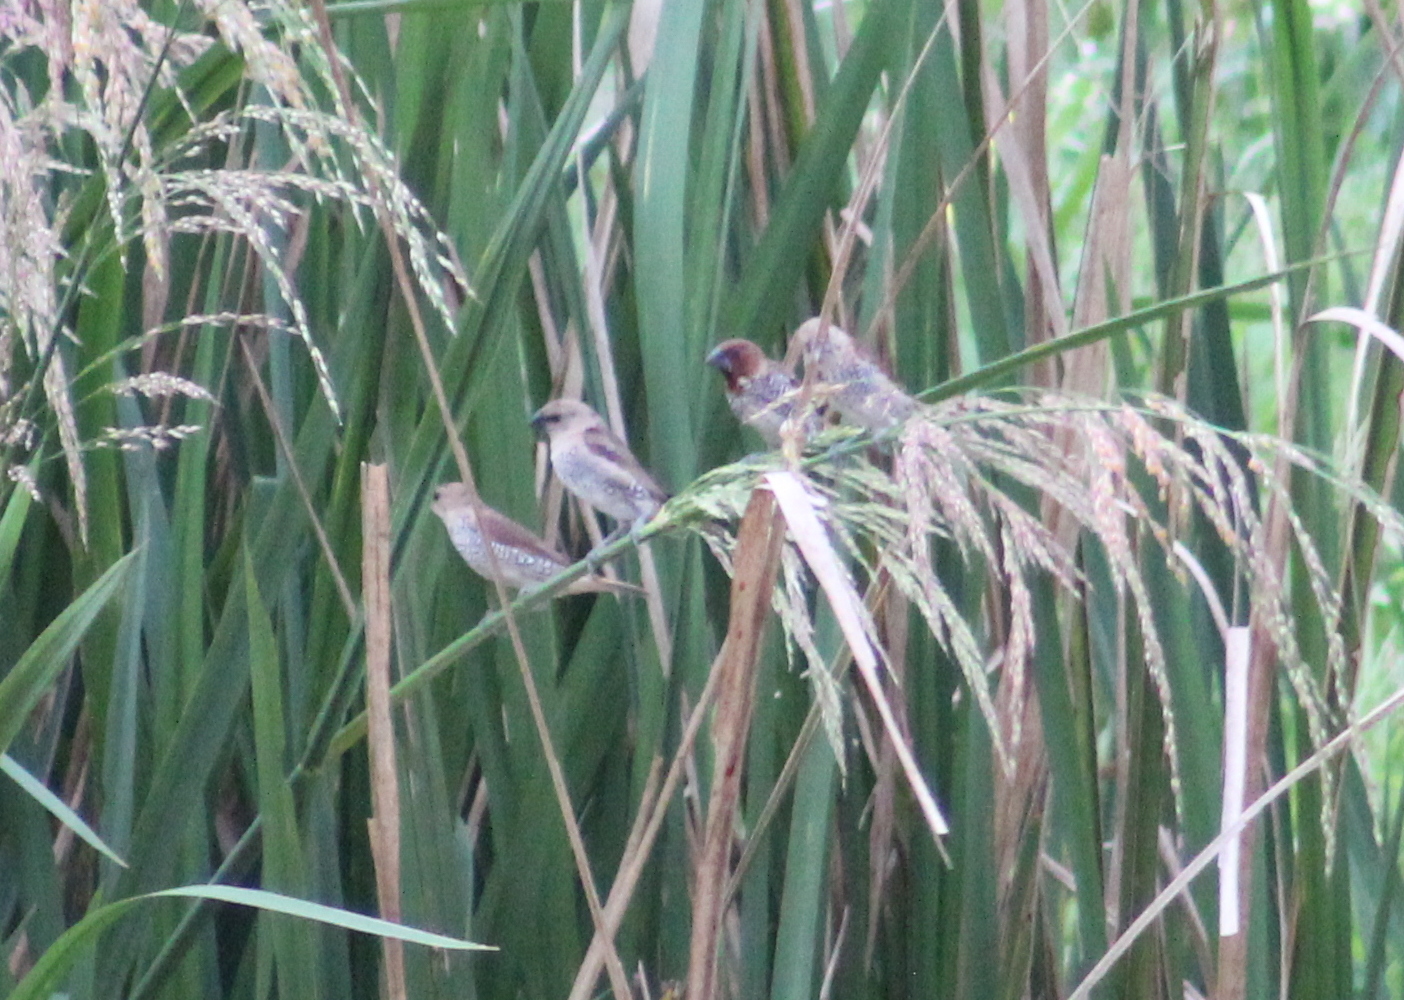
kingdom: Animalia
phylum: Chordata
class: Aves
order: Passeriformes
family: Estrildidae
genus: Lonchura
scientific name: Lonchura punctulata
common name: Scaly-breasted munia
